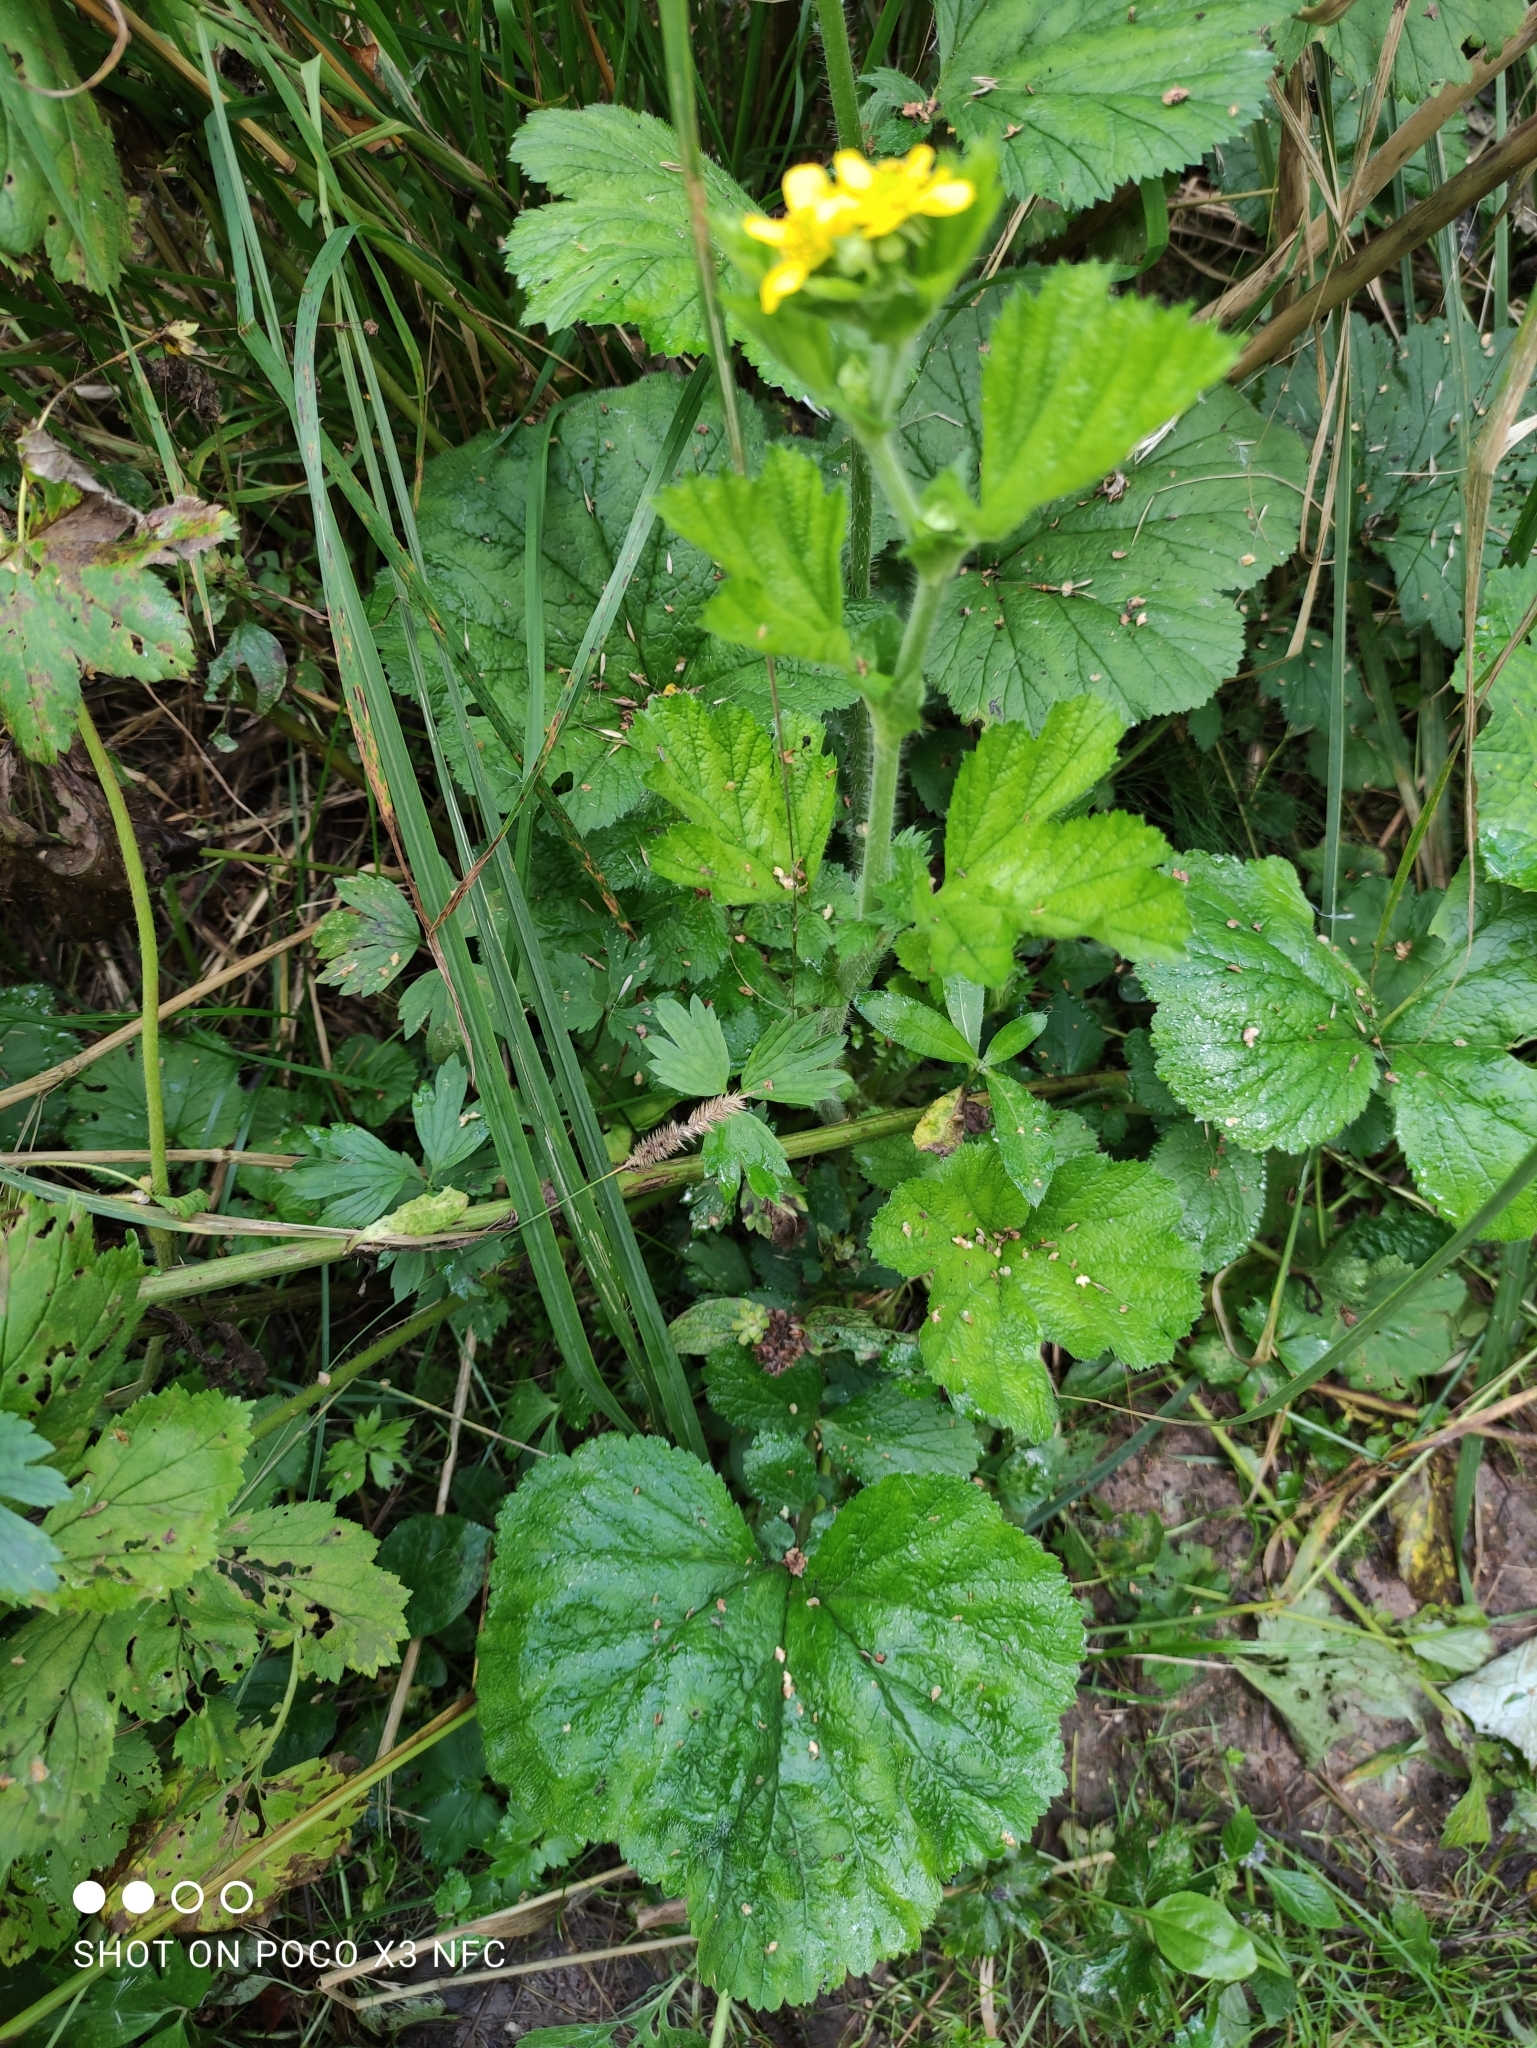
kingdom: Plantae
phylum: Tracheophyta
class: Magnoliopsida
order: Rosales
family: Rosaceae
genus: Geum
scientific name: Geum macrophyllum
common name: Large-leaved avens
